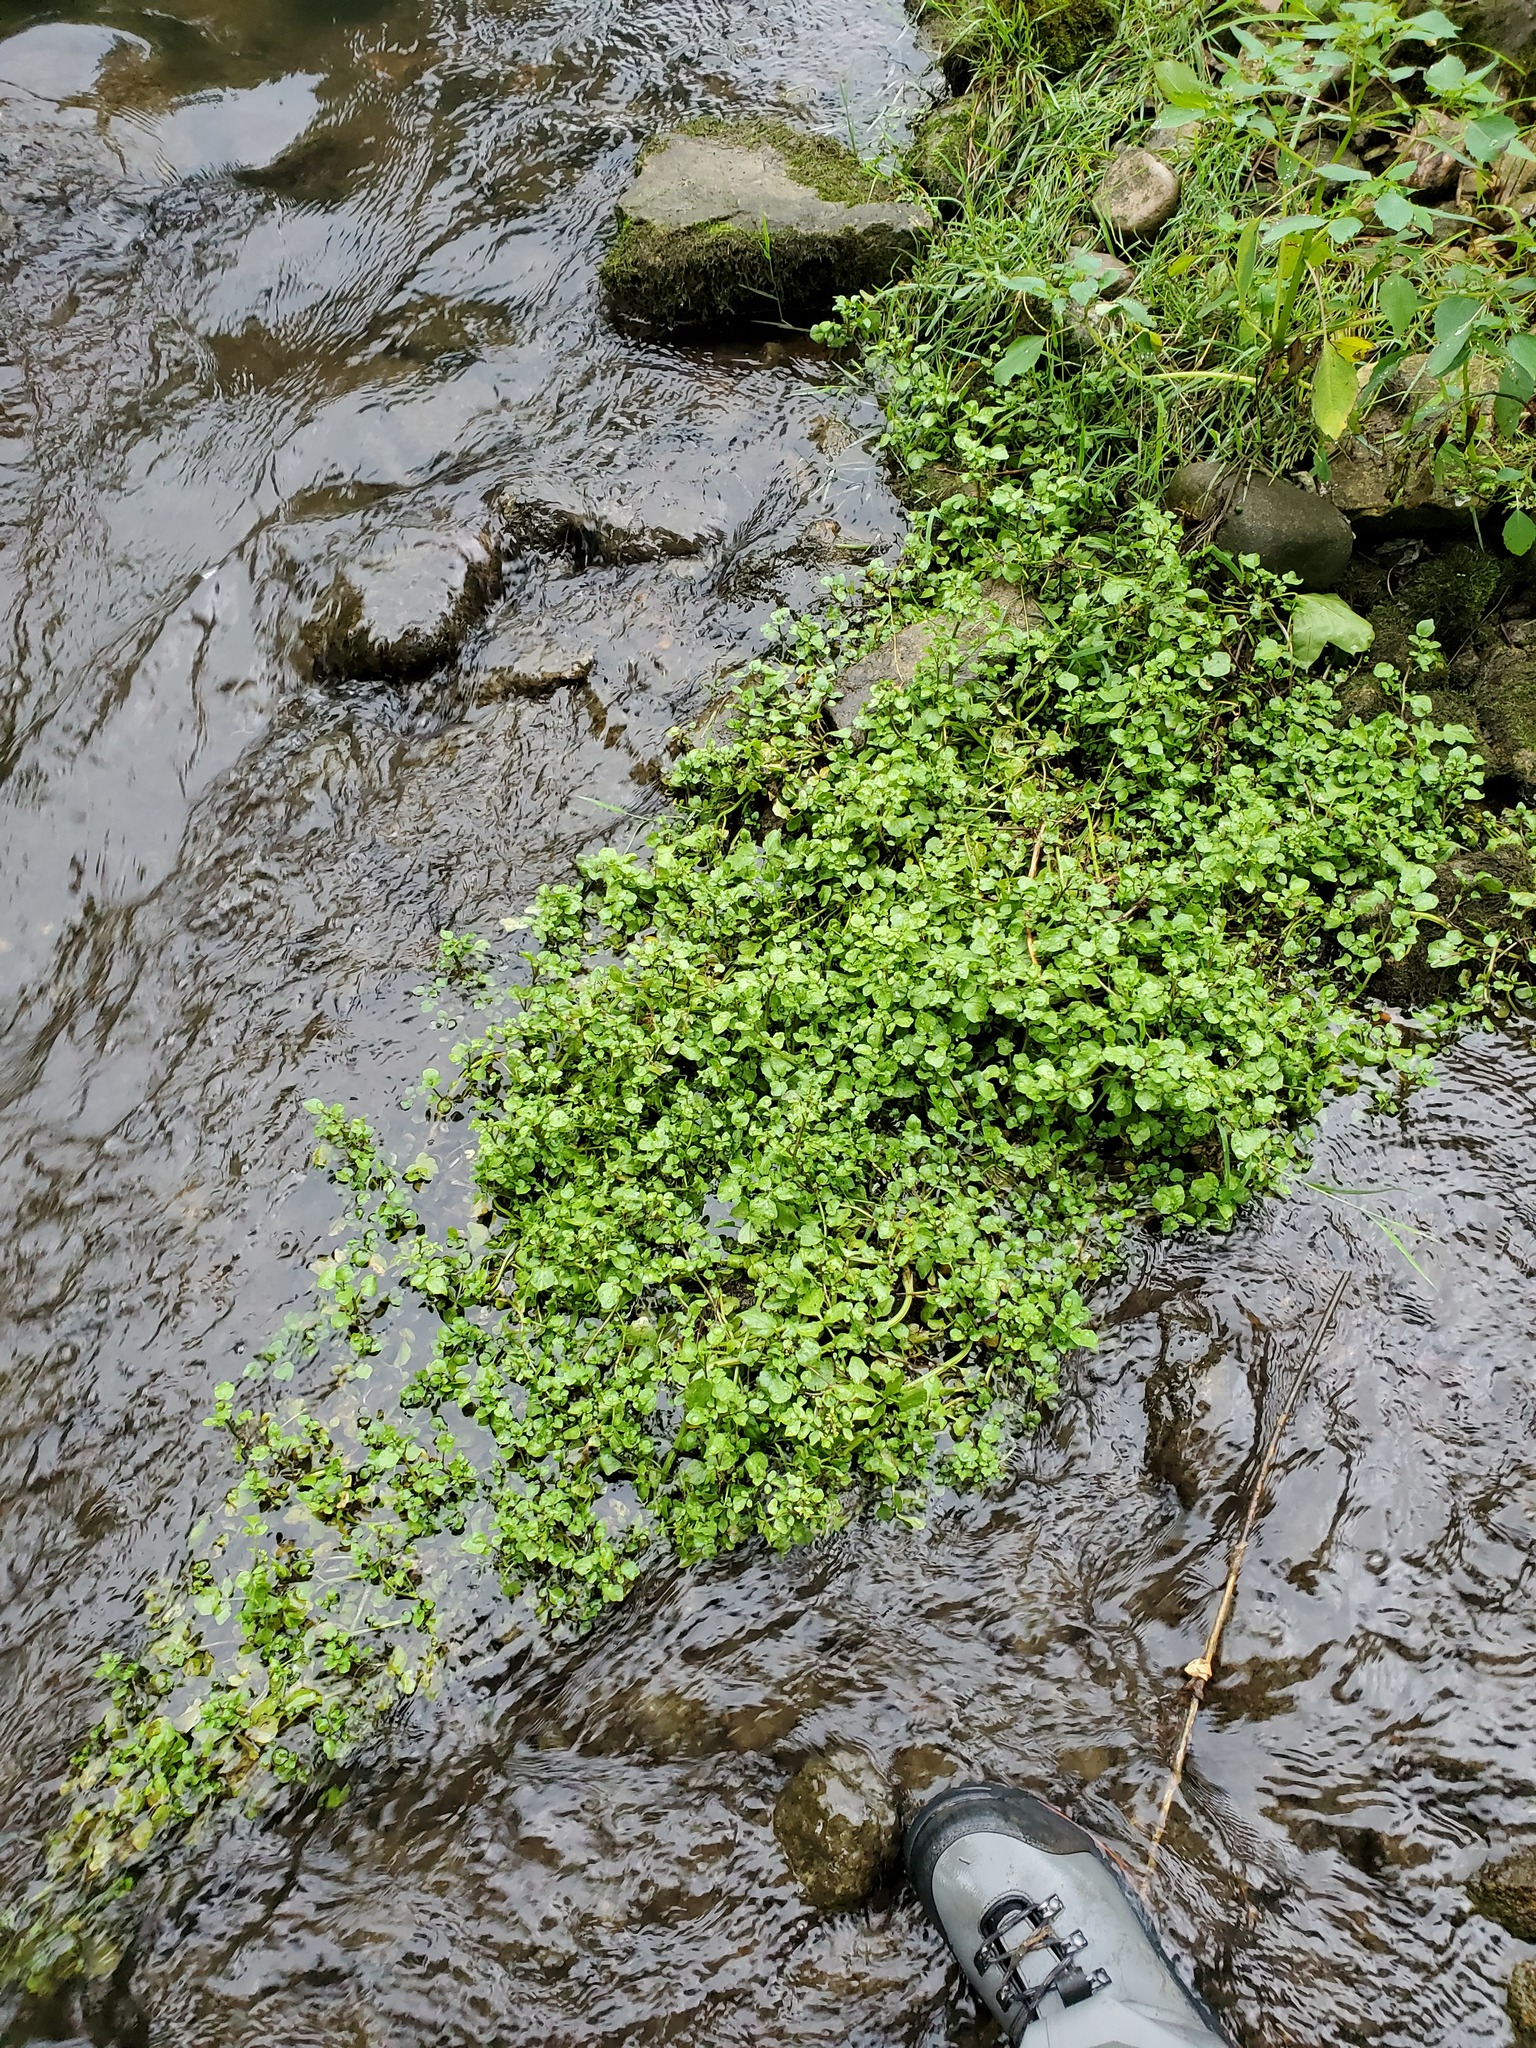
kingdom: Plantae
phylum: Tracheophyta
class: Magnoliopsida
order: Brassicales
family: Brassicaceae
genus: Nasturtium
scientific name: Nasturtium officinale
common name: Watercress
